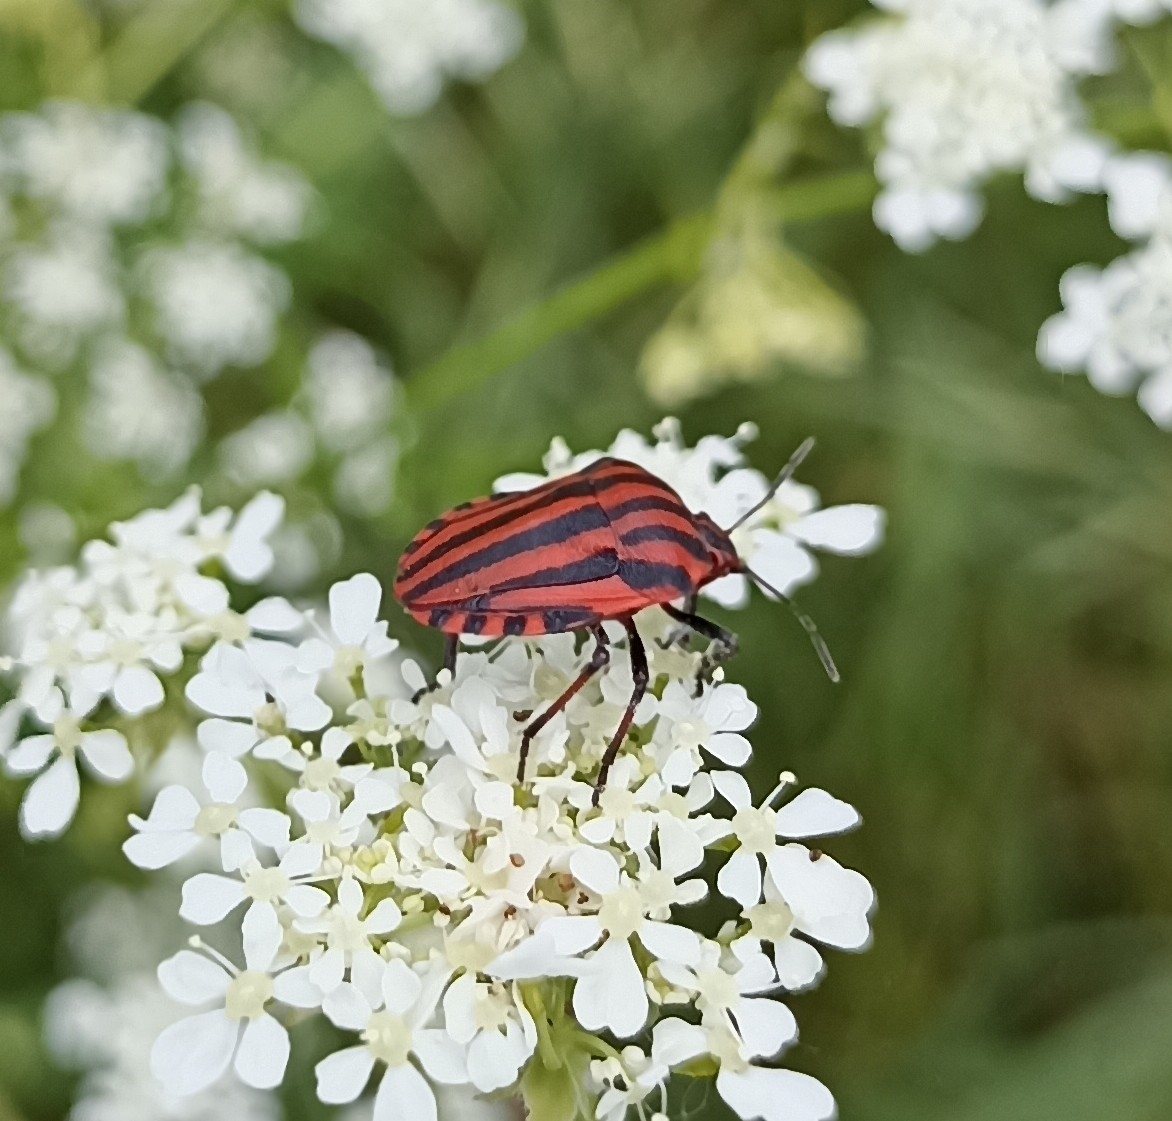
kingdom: Animalia
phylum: Arthropoda
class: Insecta
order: Hemiptera
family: Pentatomidae
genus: Graphosoma
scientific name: Graphosoma italicum
